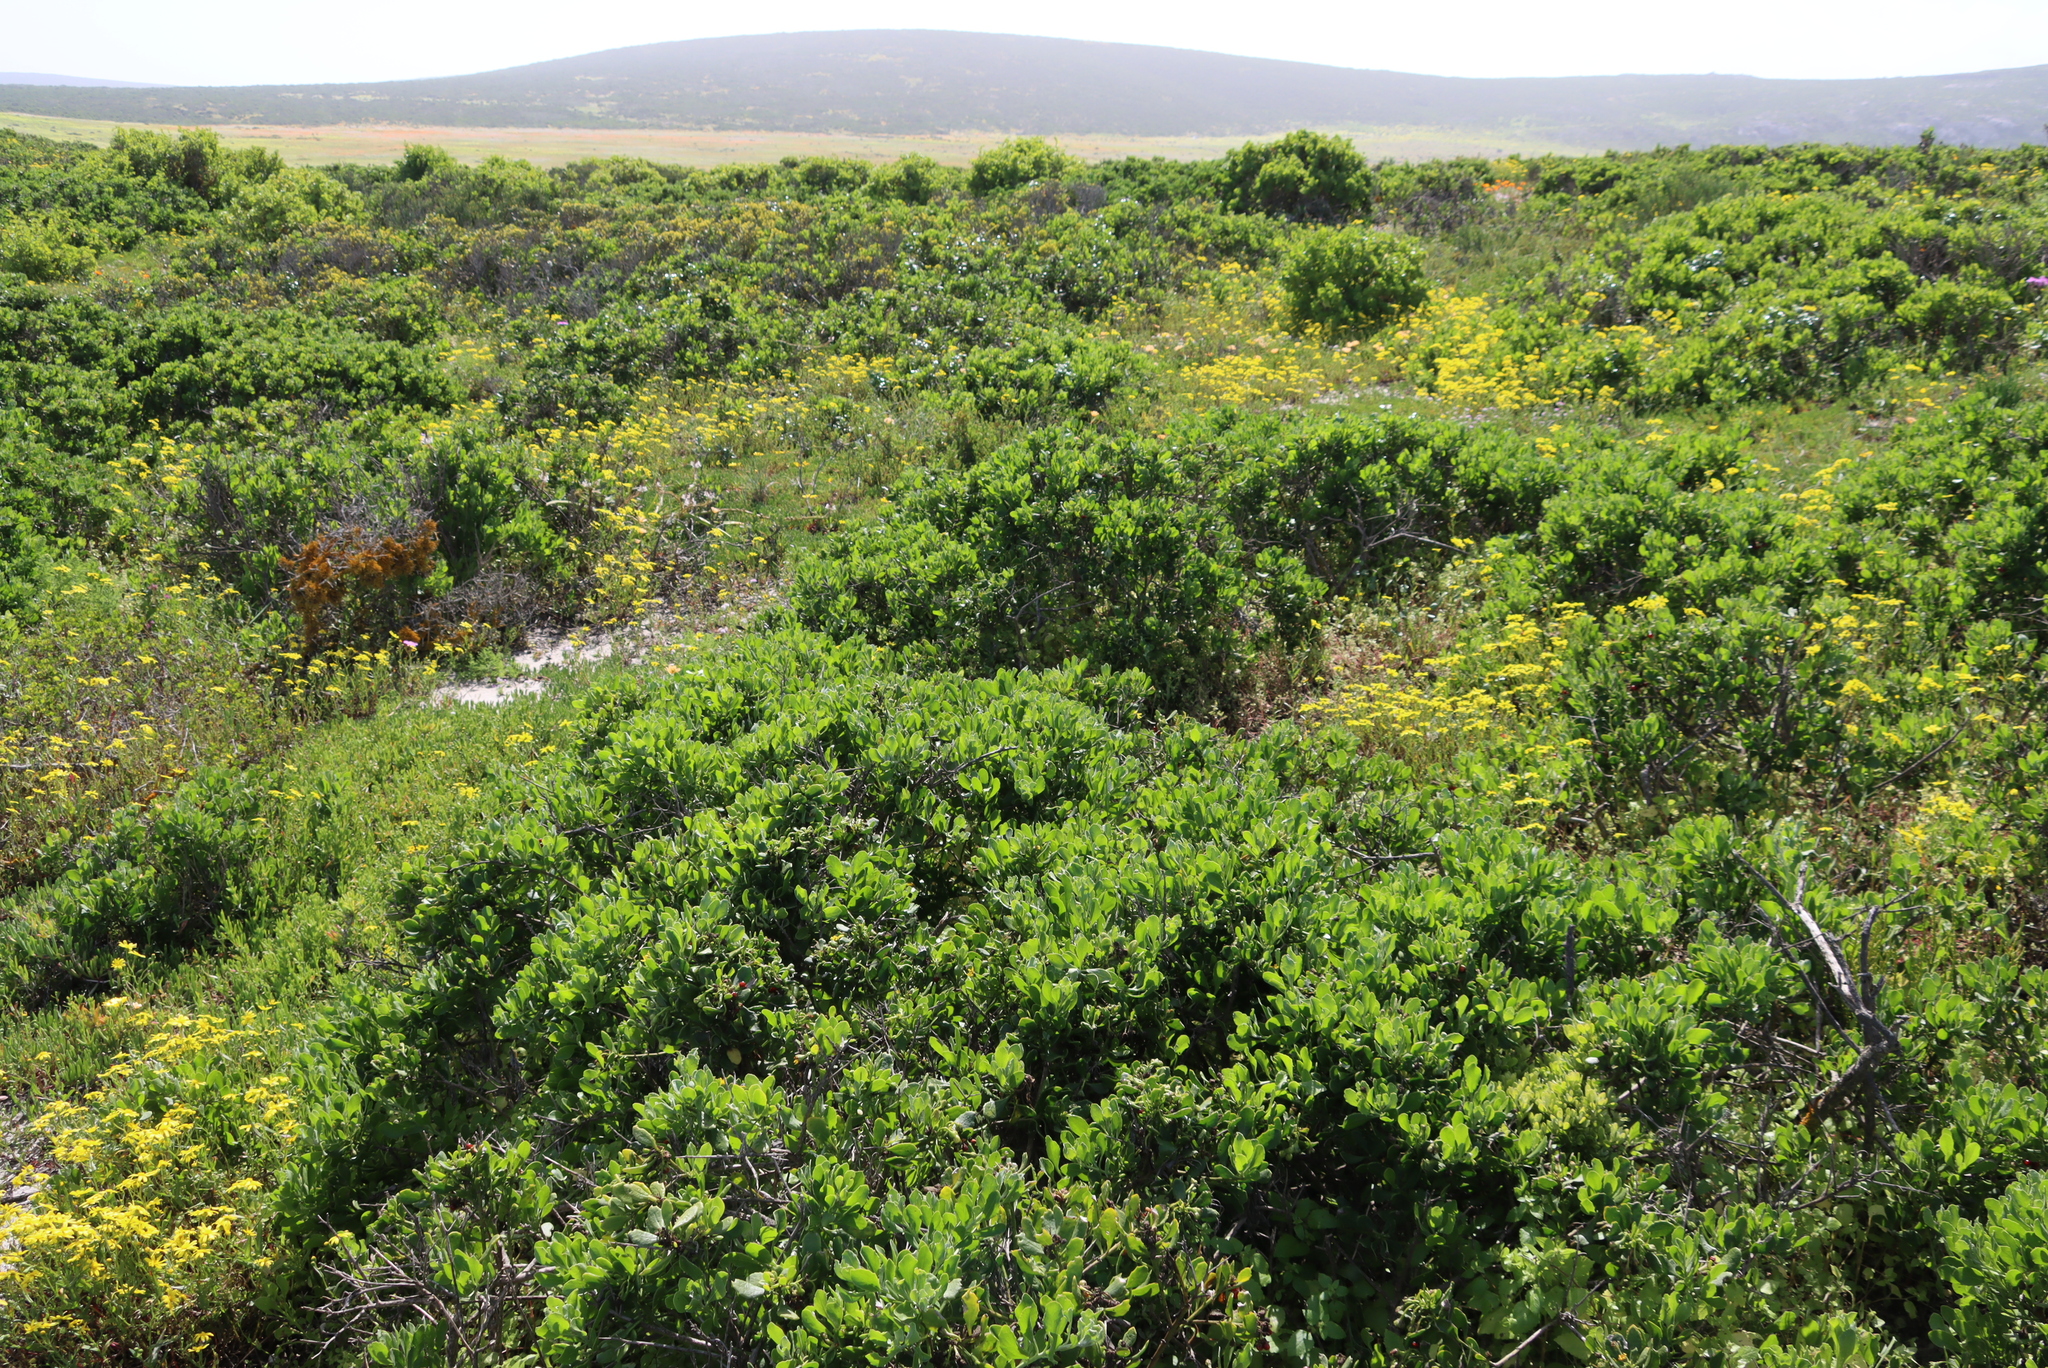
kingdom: Plantae
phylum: Tracheophyta
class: Magnoliopsida
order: Asterales
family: Asteraceae
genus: Osteospermum
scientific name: Osteospermum moniliferum
